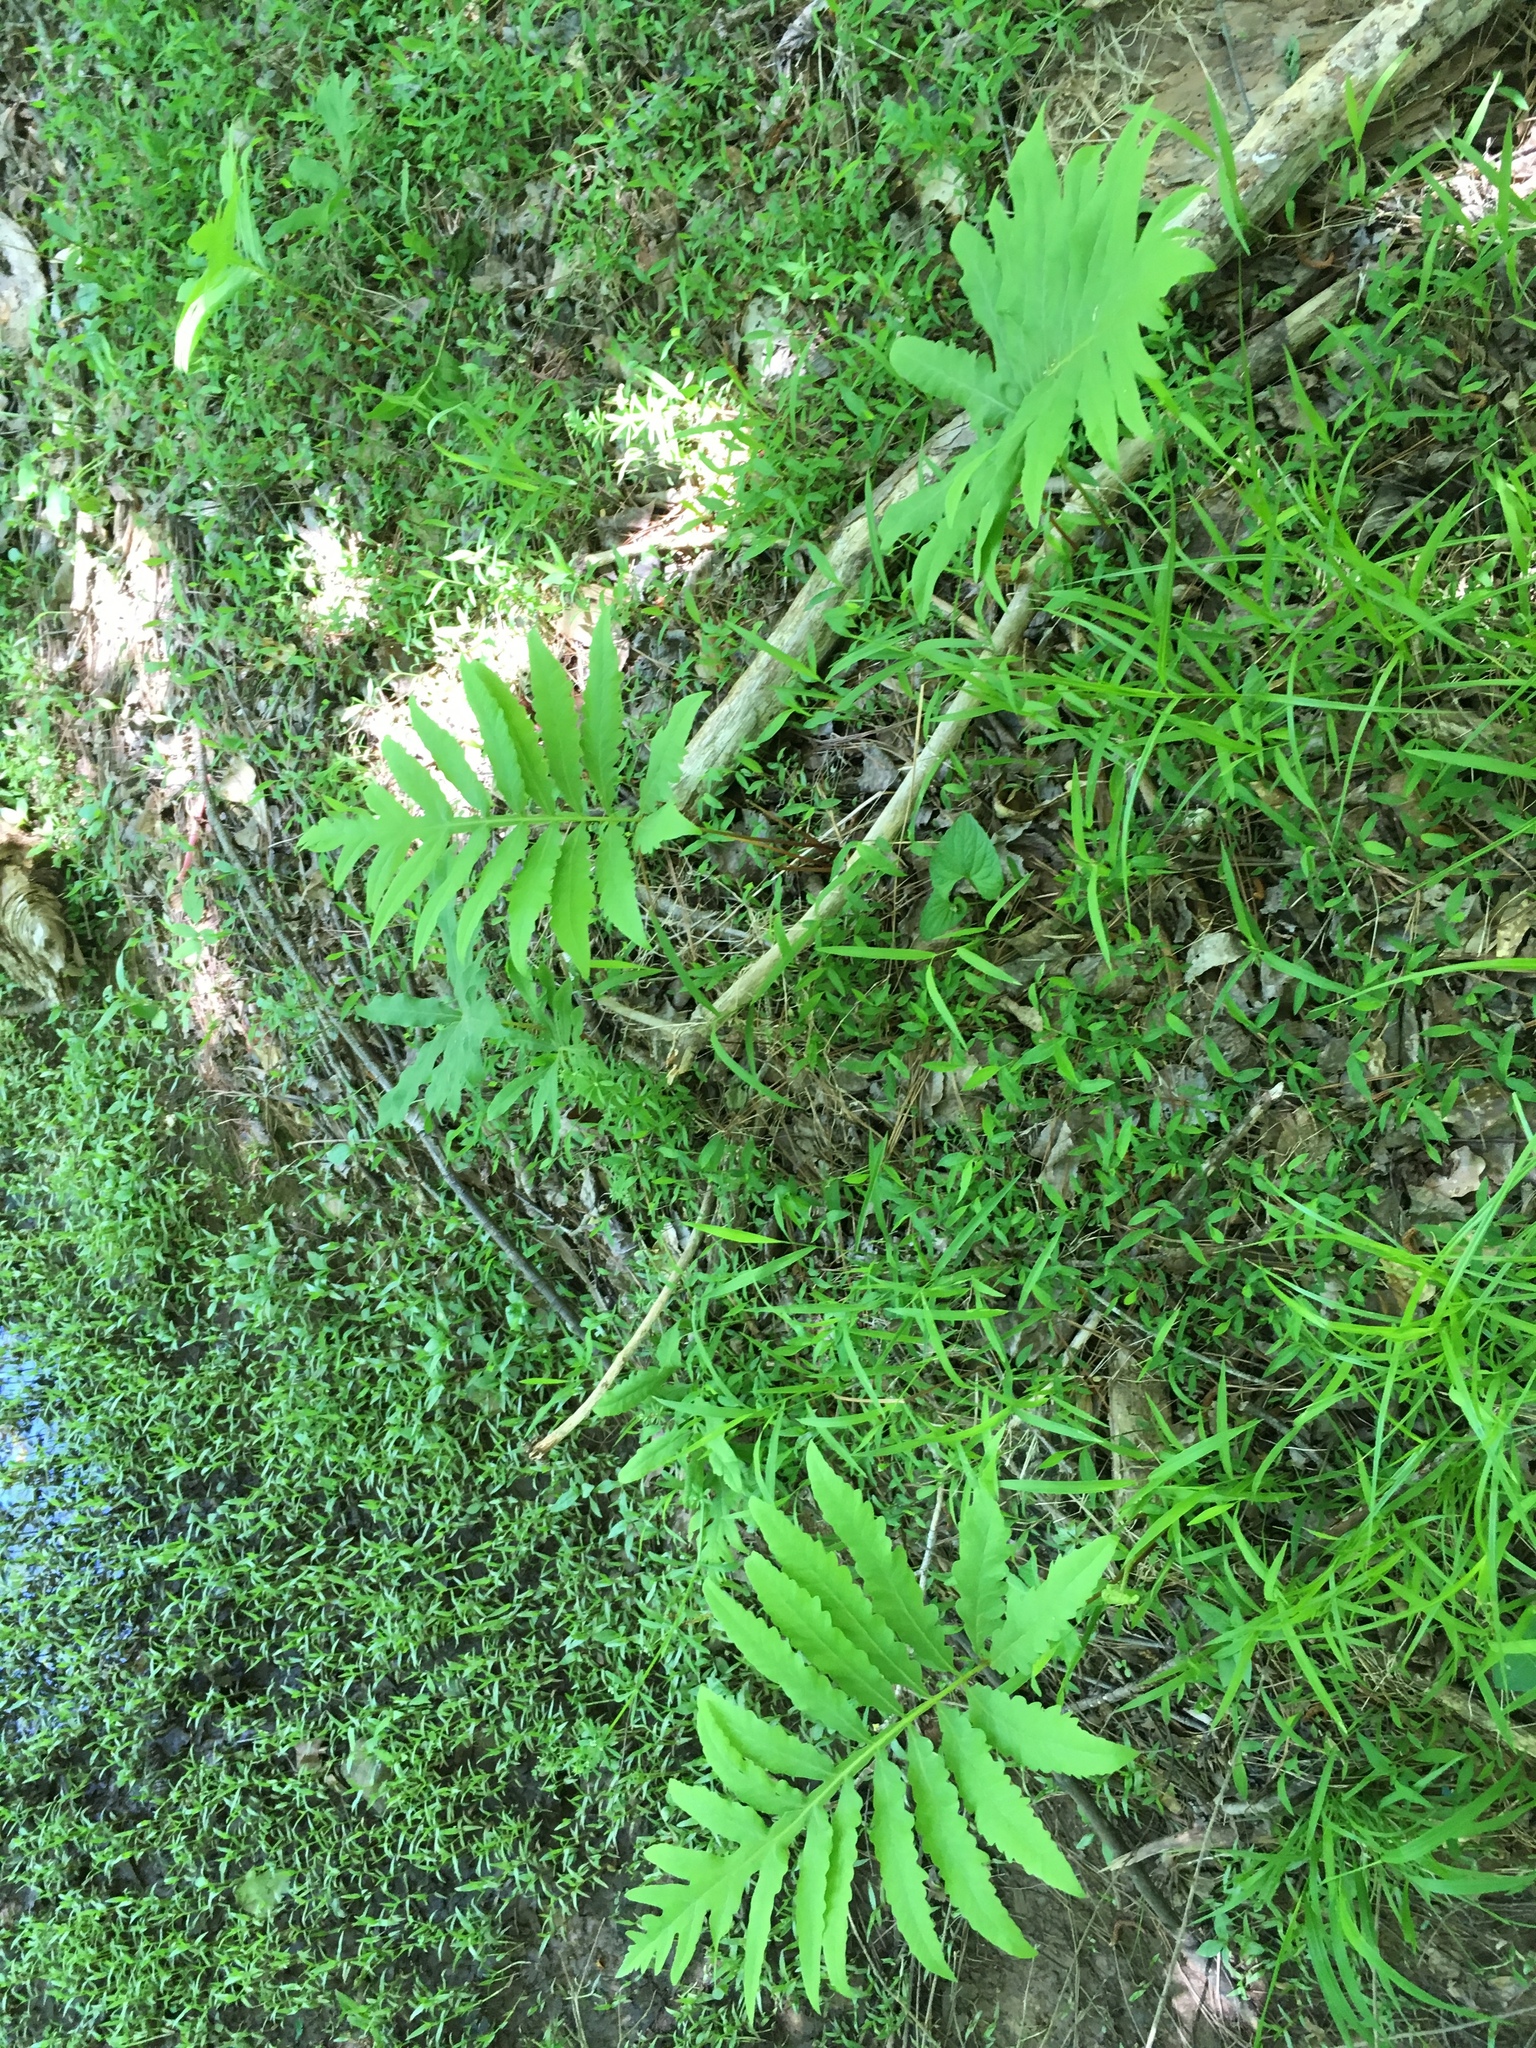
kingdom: Plantae
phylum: Tracheophyta
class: Polypodiopsida
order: Polypodiales
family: Onocleaceae
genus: Onoclea
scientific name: Onoclea sensibilis
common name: Sensitive fern
